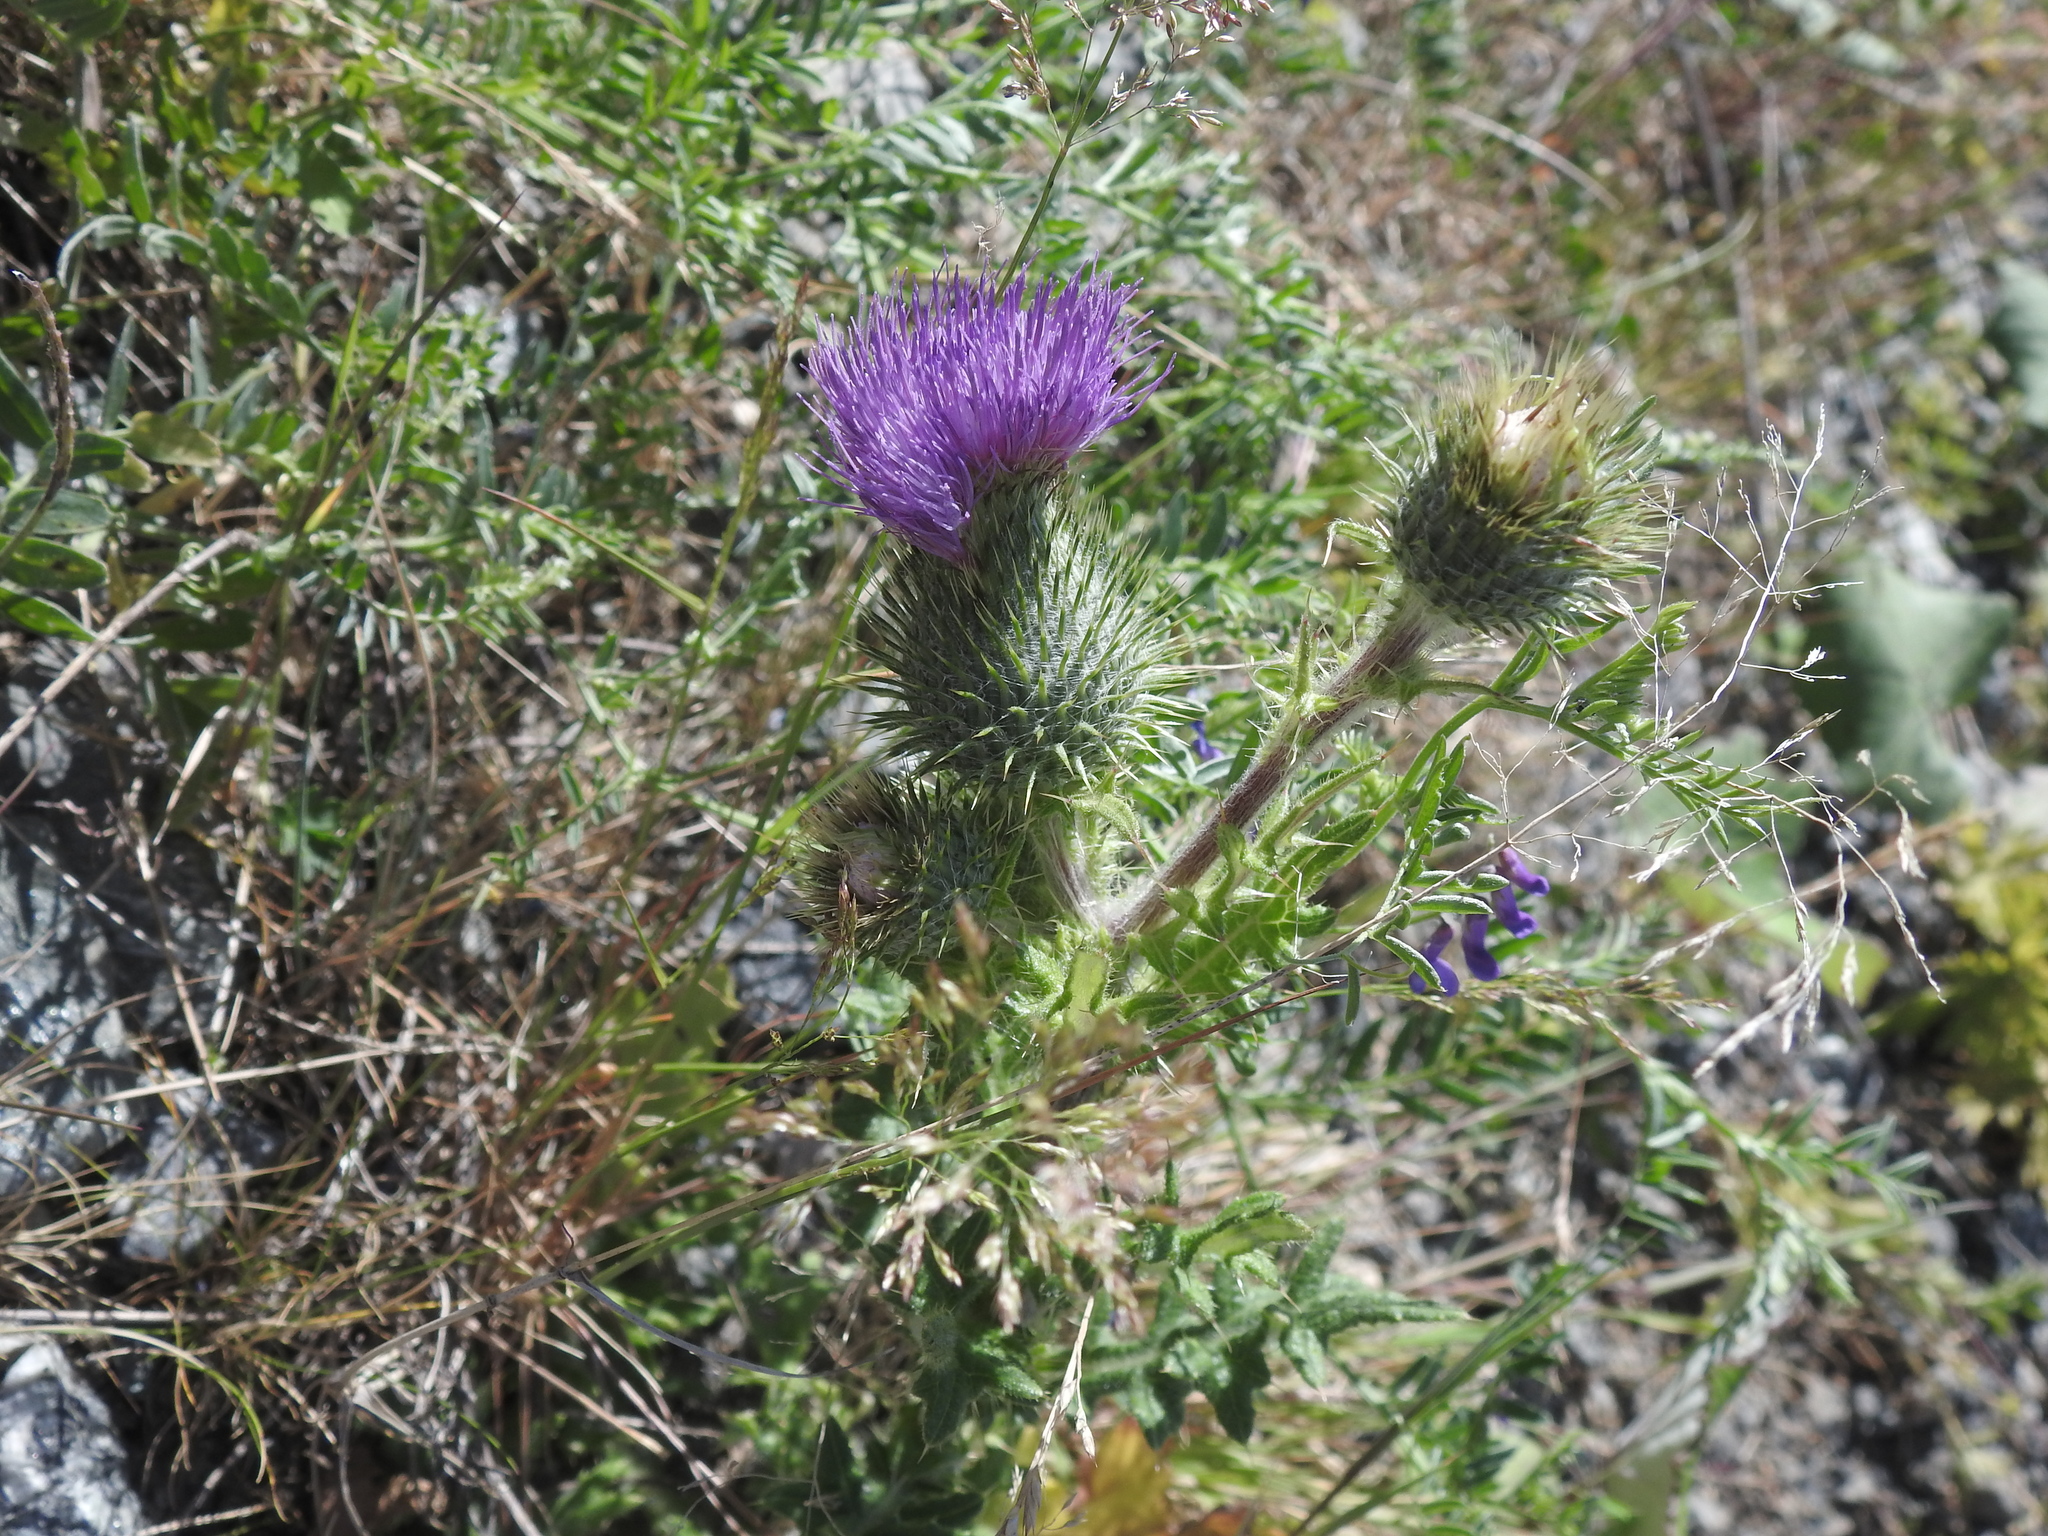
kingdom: Plantae
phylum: Tracheophyta
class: Magnoliopsida
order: Asterales
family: Asteraceae
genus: Cirsium
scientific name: Cirsium vulgare
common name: Bull thistle
